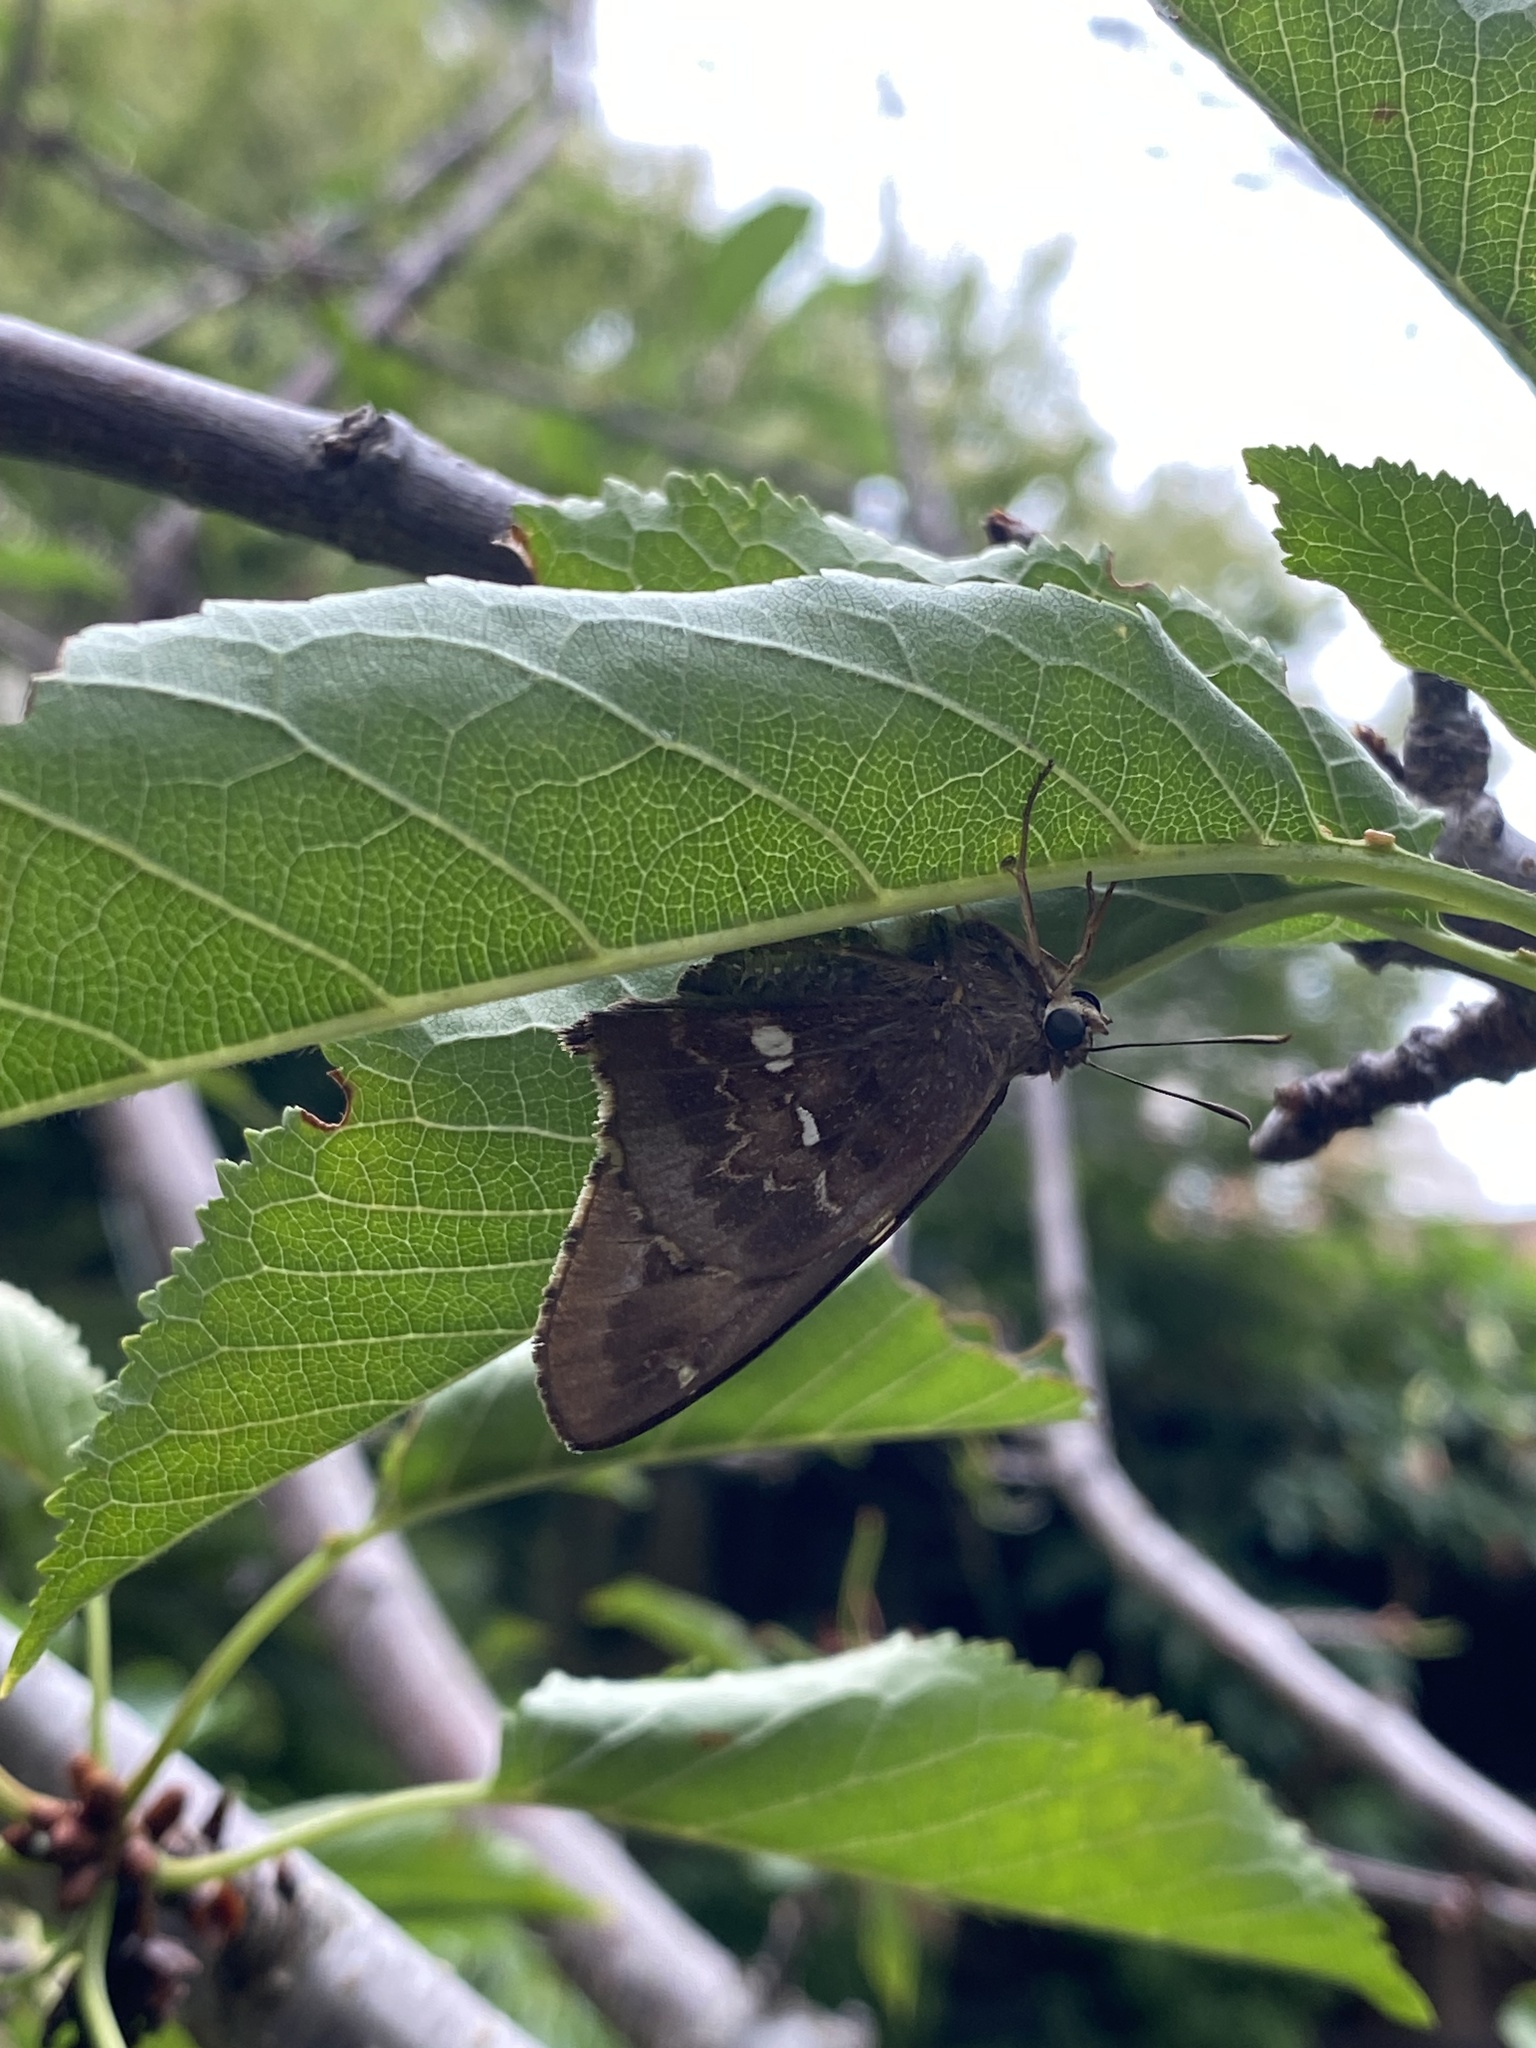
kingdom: Animalia
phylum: Arthropoda
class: Insecta
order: Lepidoptera
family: Hesperiidae
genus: Epargyreus
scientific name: Epargyreus tmolis
